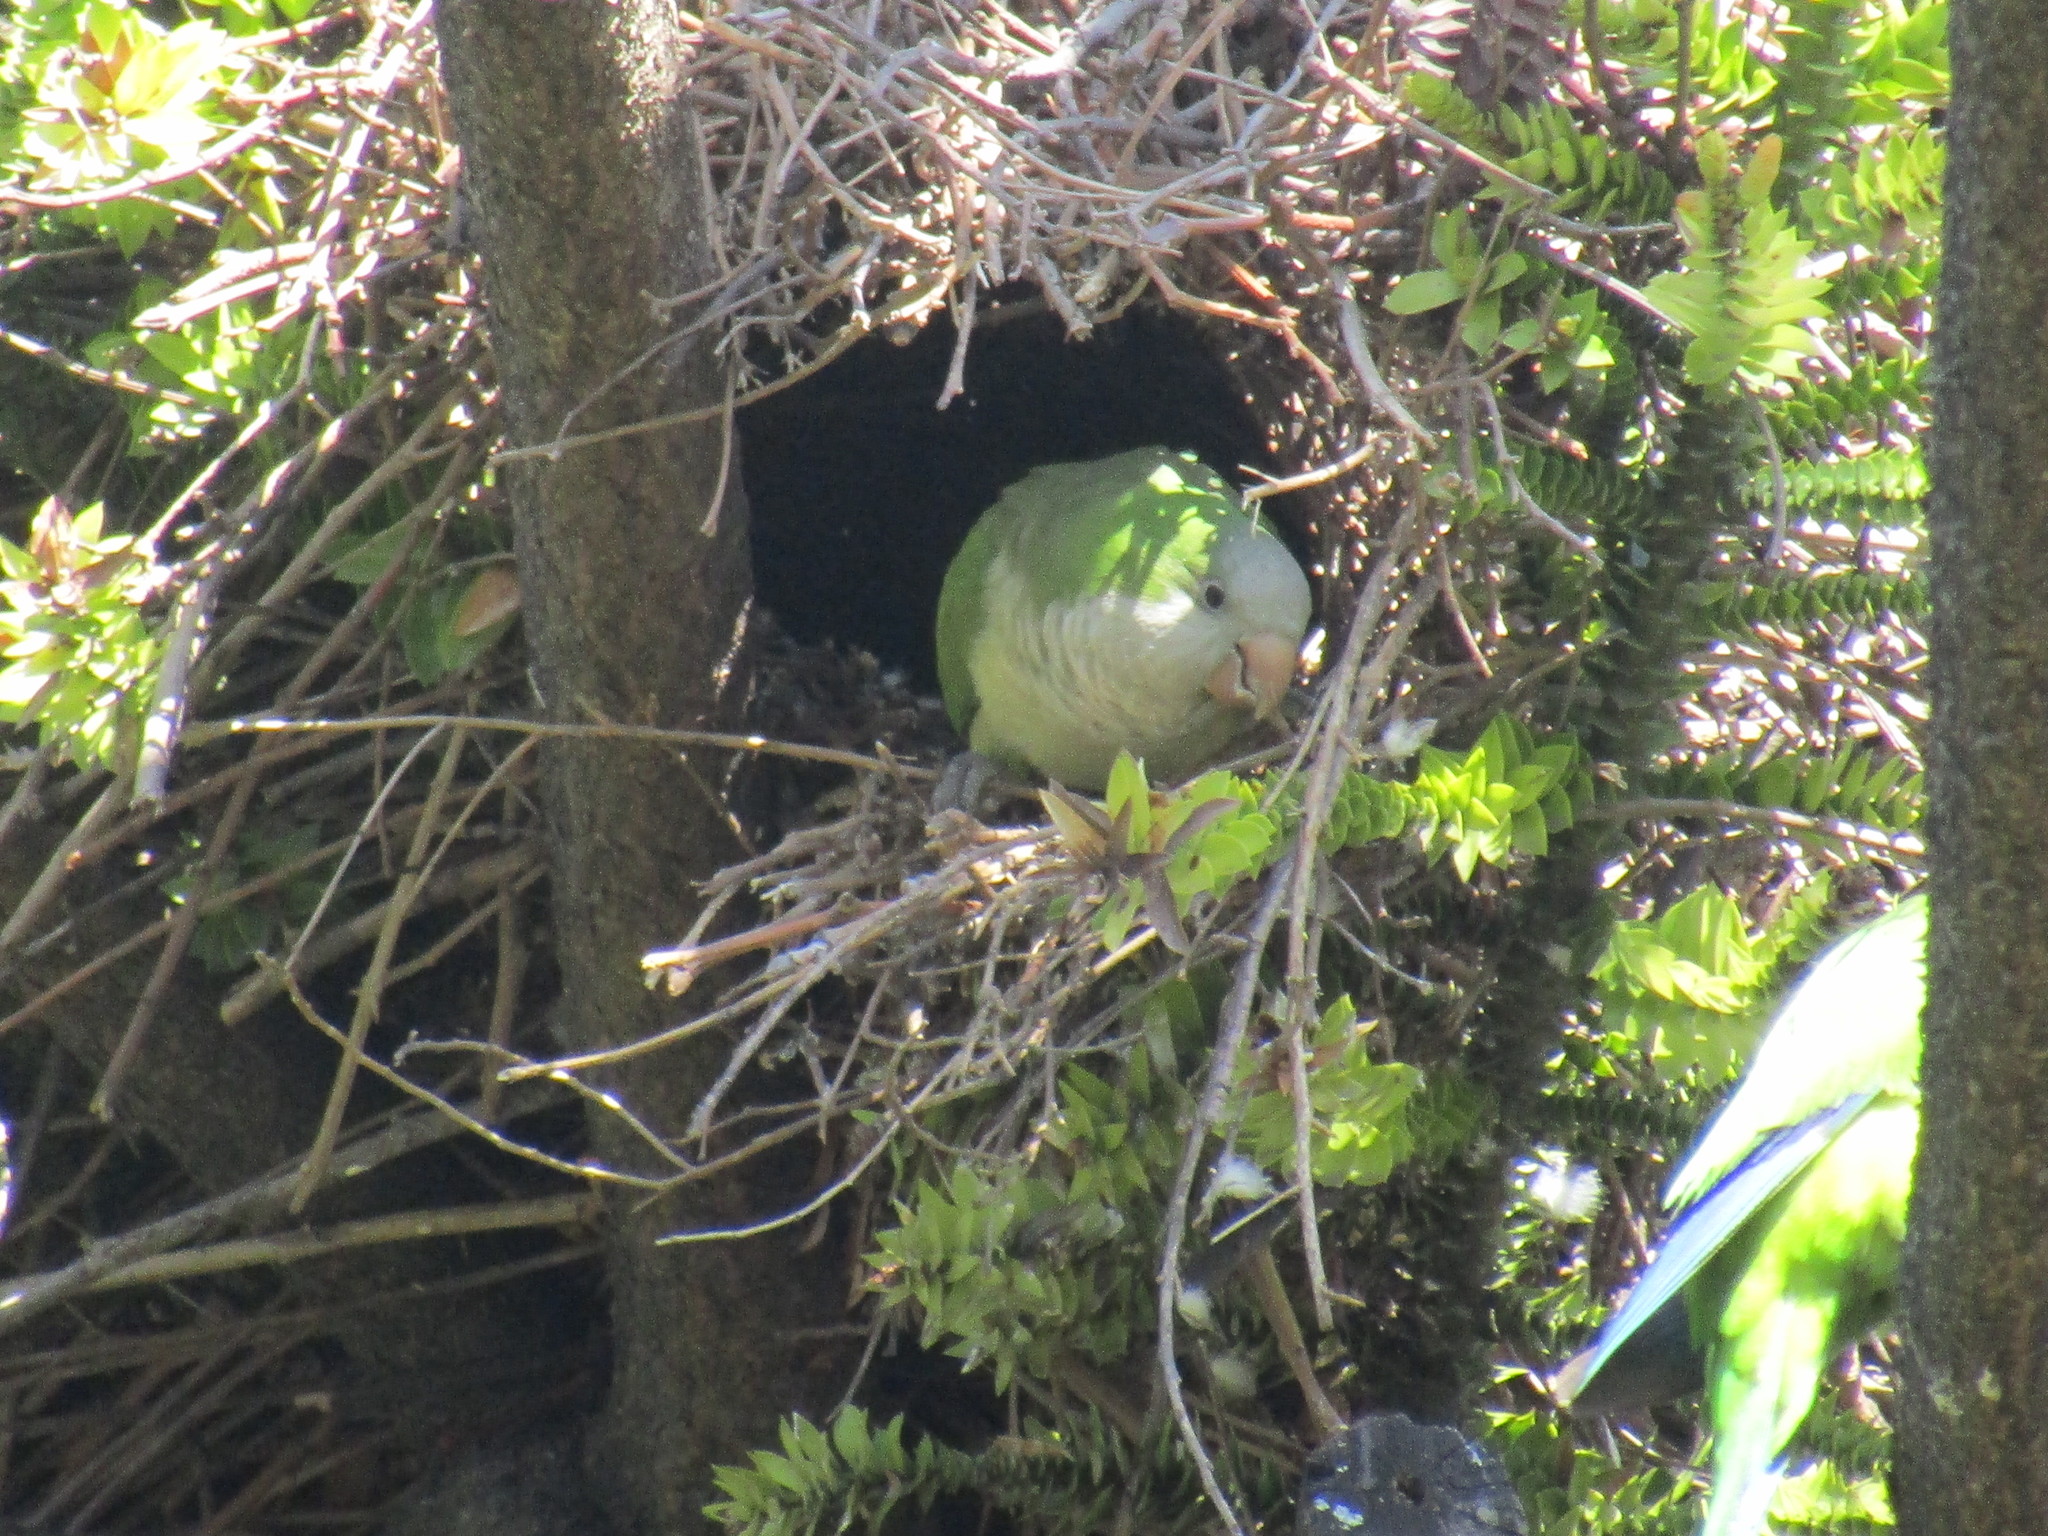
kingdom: Animalia
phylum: Chordata
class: Aves
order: Psittaciformes
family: Psittacidae
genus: Myiopsitta
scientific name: Myiopsitta monachus
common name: Monk parakeet
